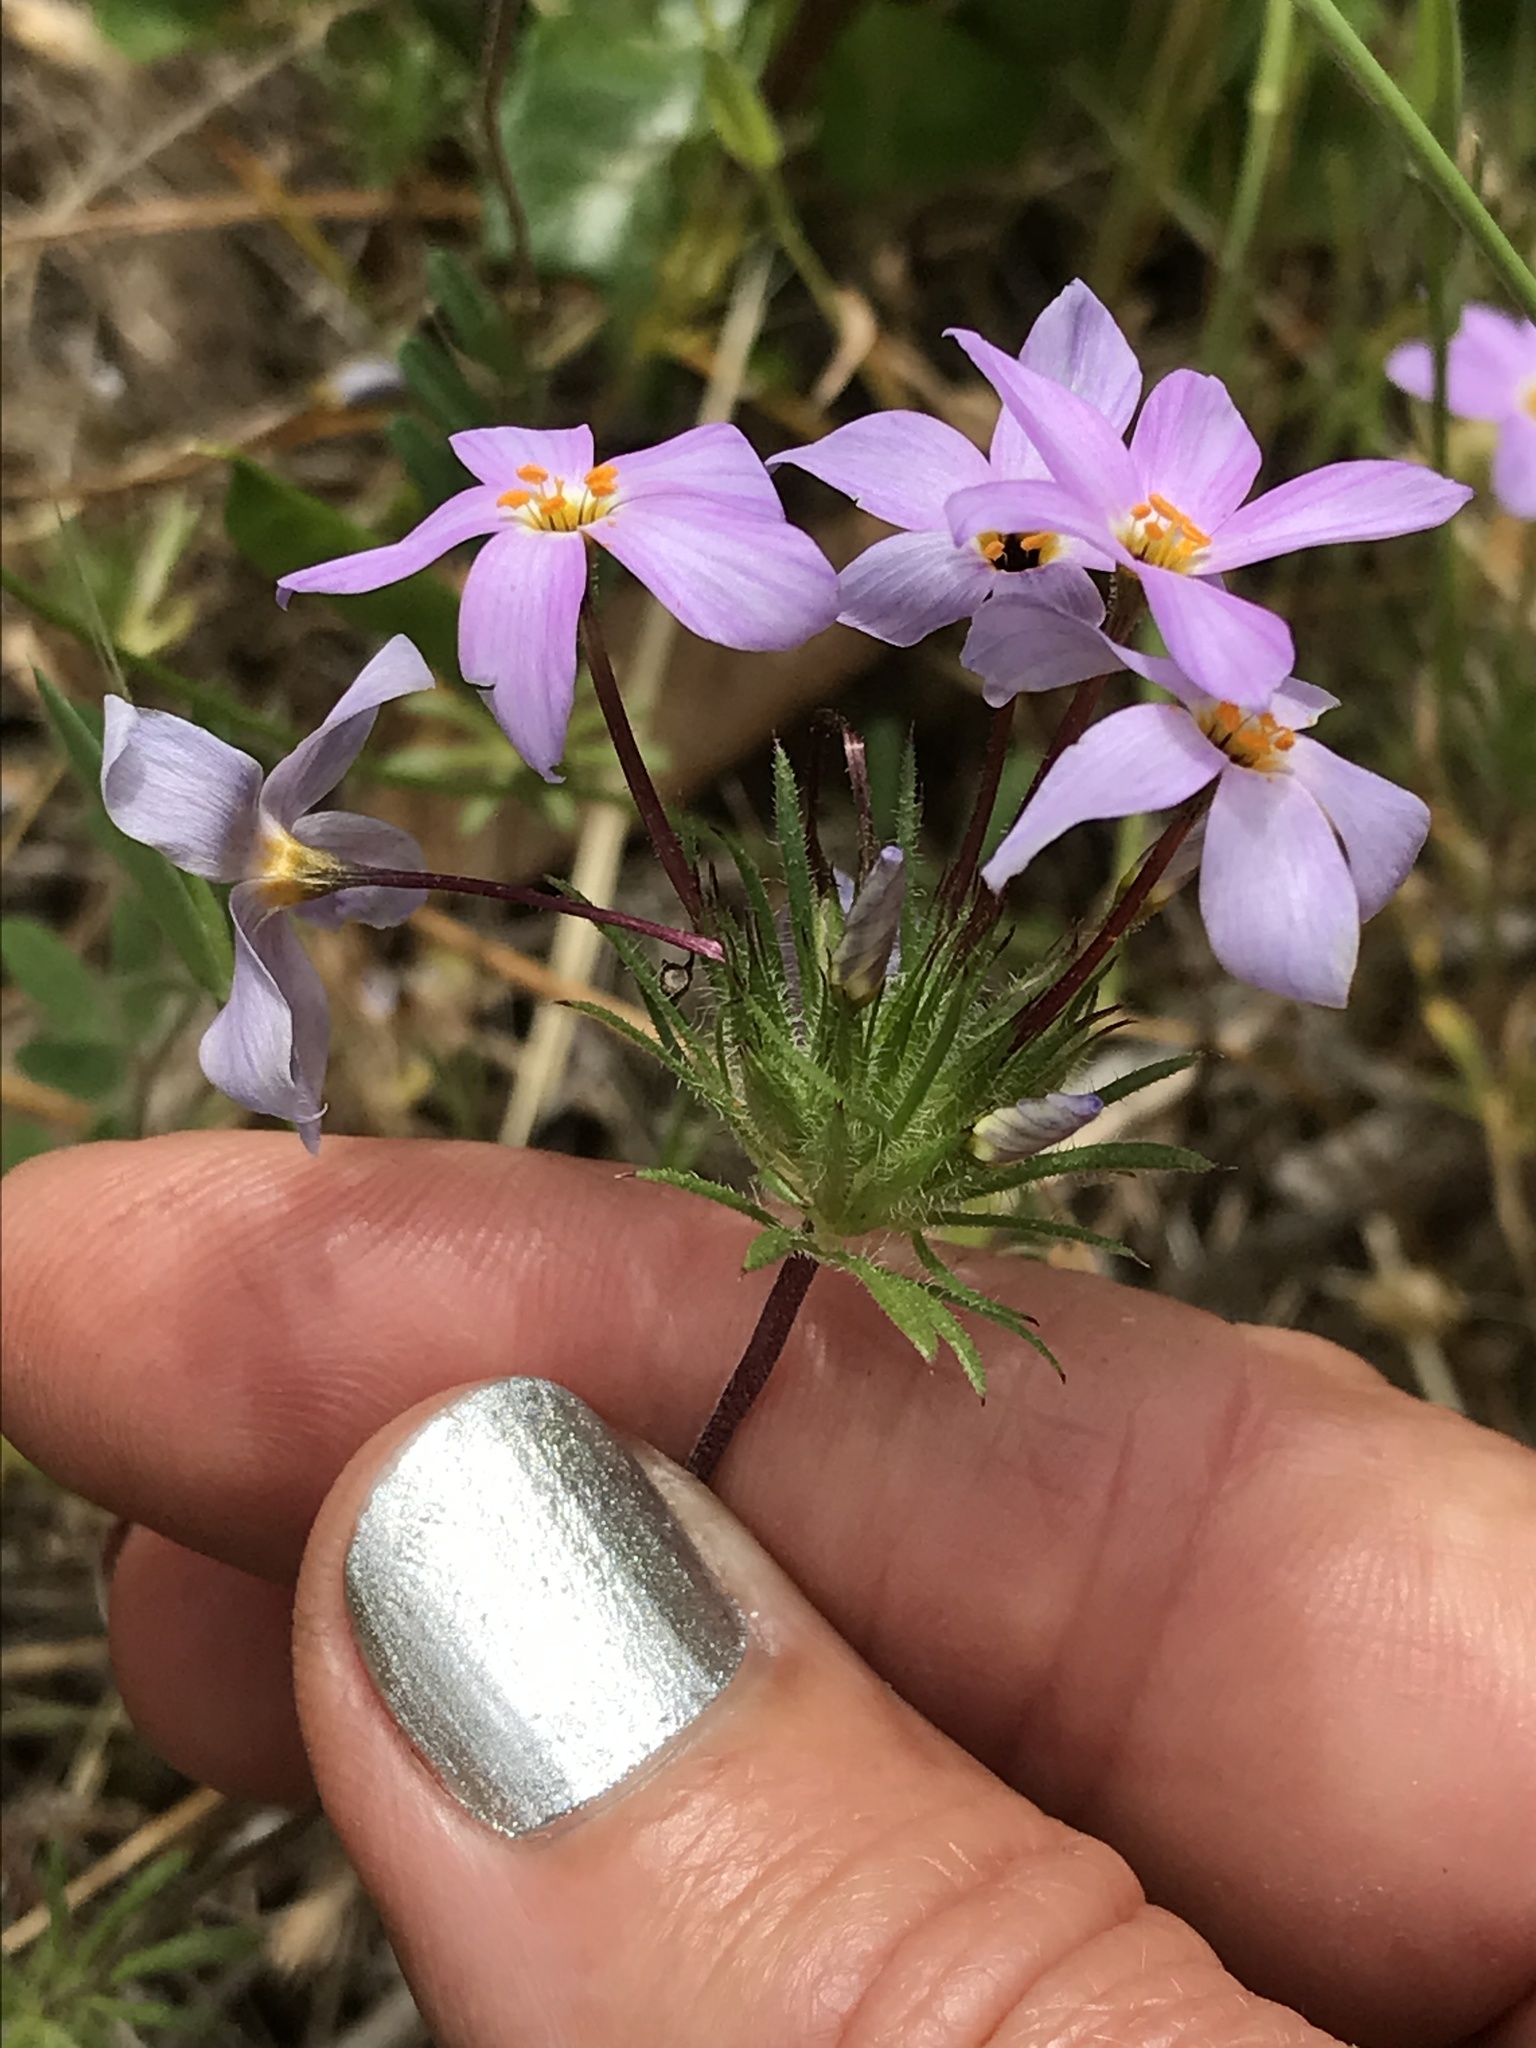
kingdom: Plantae
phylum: Tracheophyta
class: Magnoliopsida
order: Ericales
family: Polemoniaceae
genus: Leptosiphon
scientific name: Leptosiphon androsaceus
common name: False babystars
